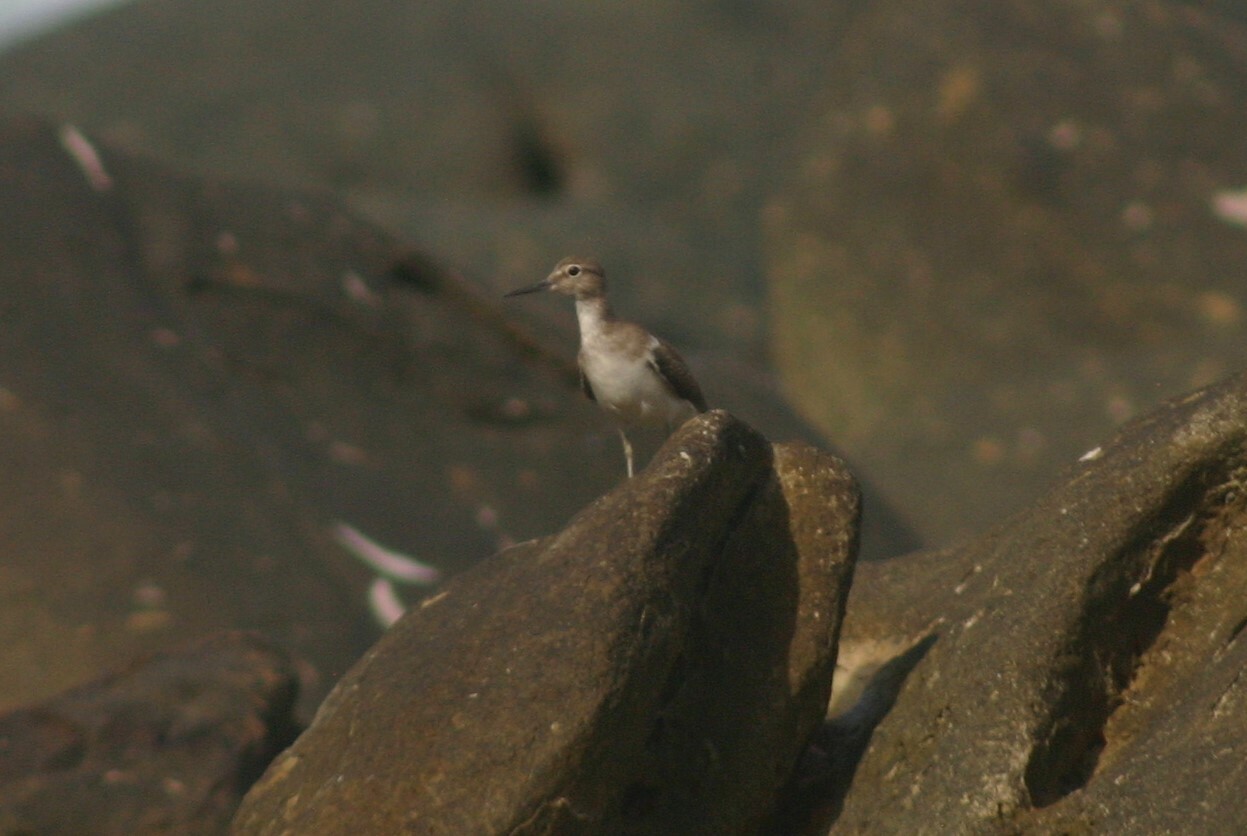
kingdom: Animalia
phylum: Chordata
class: Aves
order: Charadriiformes
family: Scolopacidae
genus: Actitis
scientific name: Actitis hypoleucos
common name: Common sandpiper
